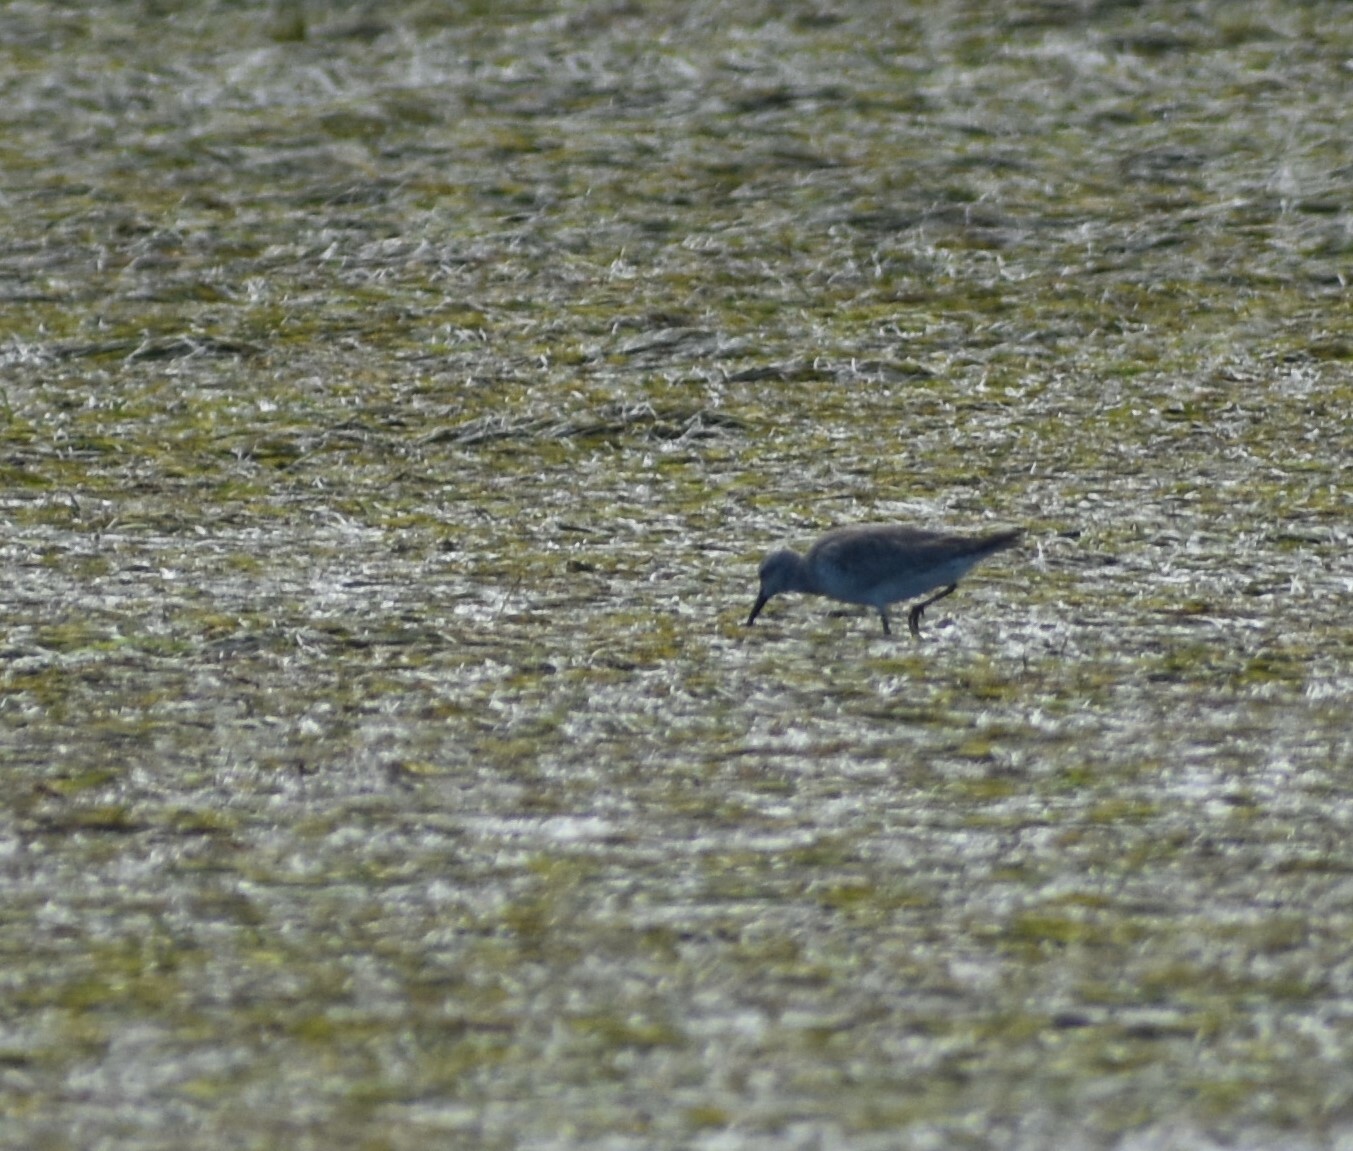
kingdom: Animalia
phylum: Chordata
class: Aves
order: Charadriiformes
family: Scolopacidae
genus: Calidris
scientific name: Calidris canutus
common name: Red knot
